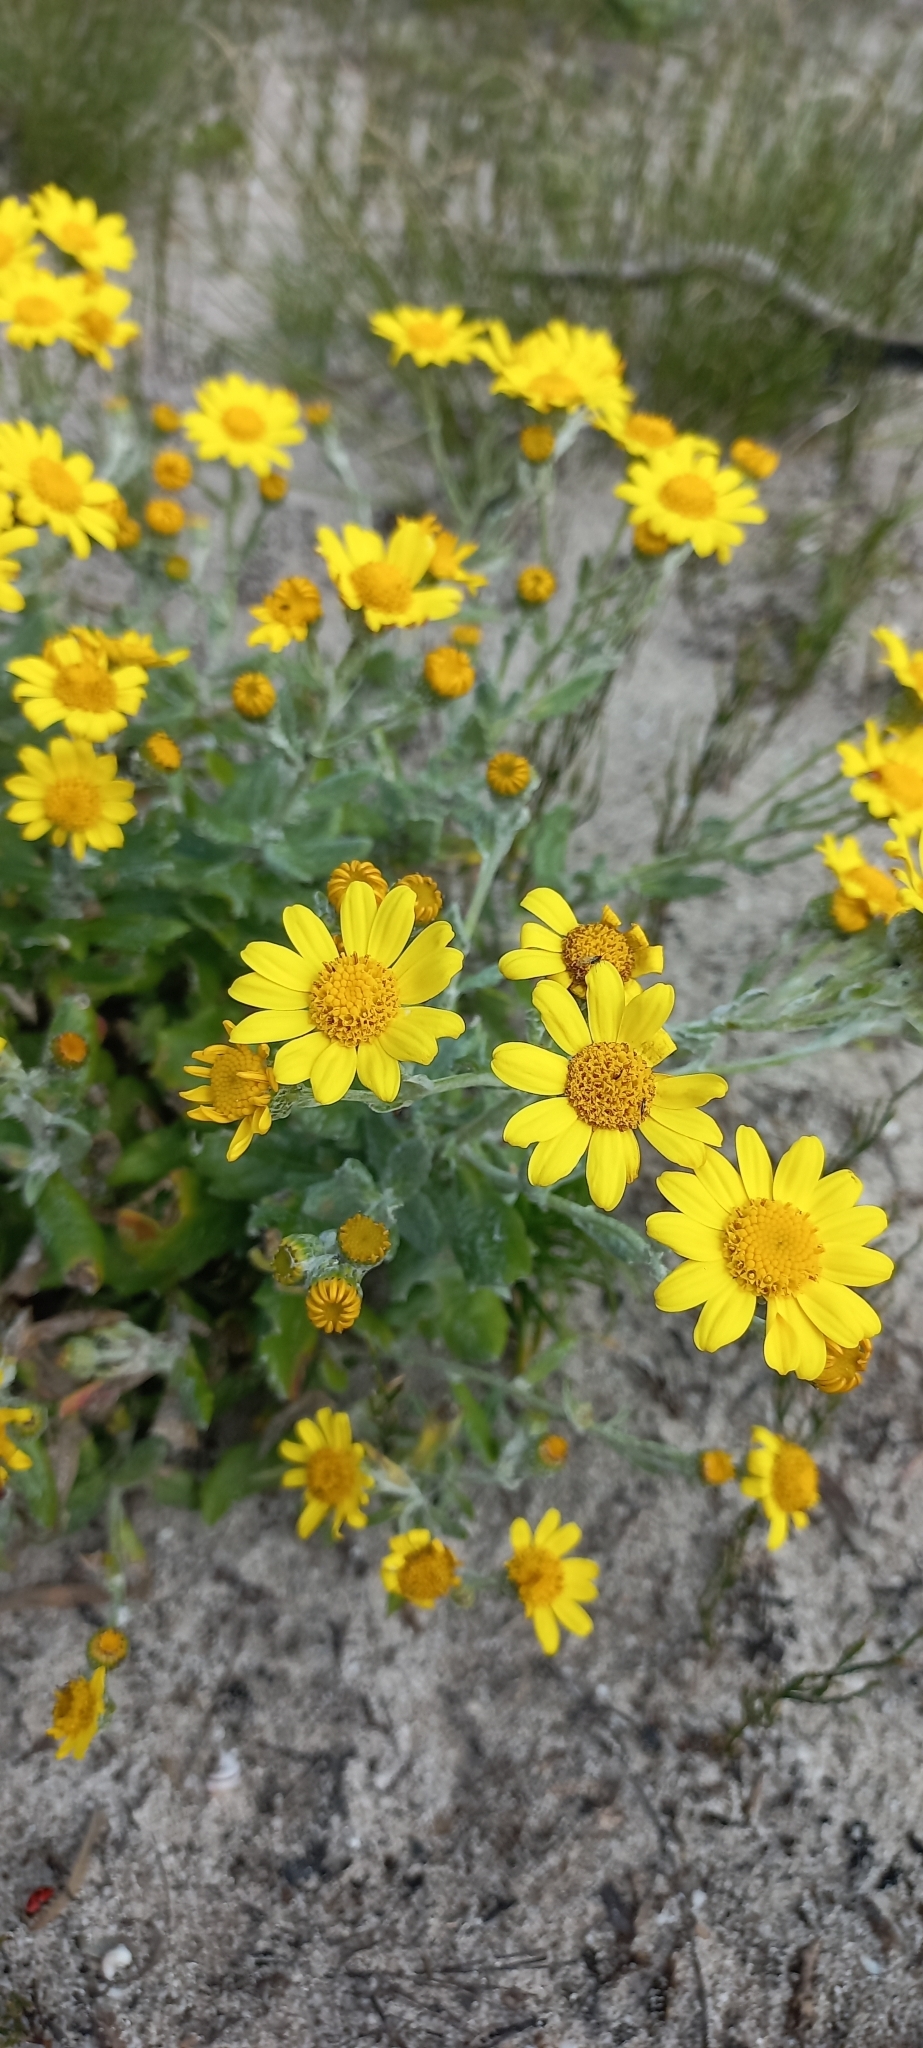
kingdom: Plantae
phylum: Tracheophyta
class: Magnoliopsida
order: Asterales
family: Asteraceae
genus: Senecio
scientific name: Senecio arniciflorus
